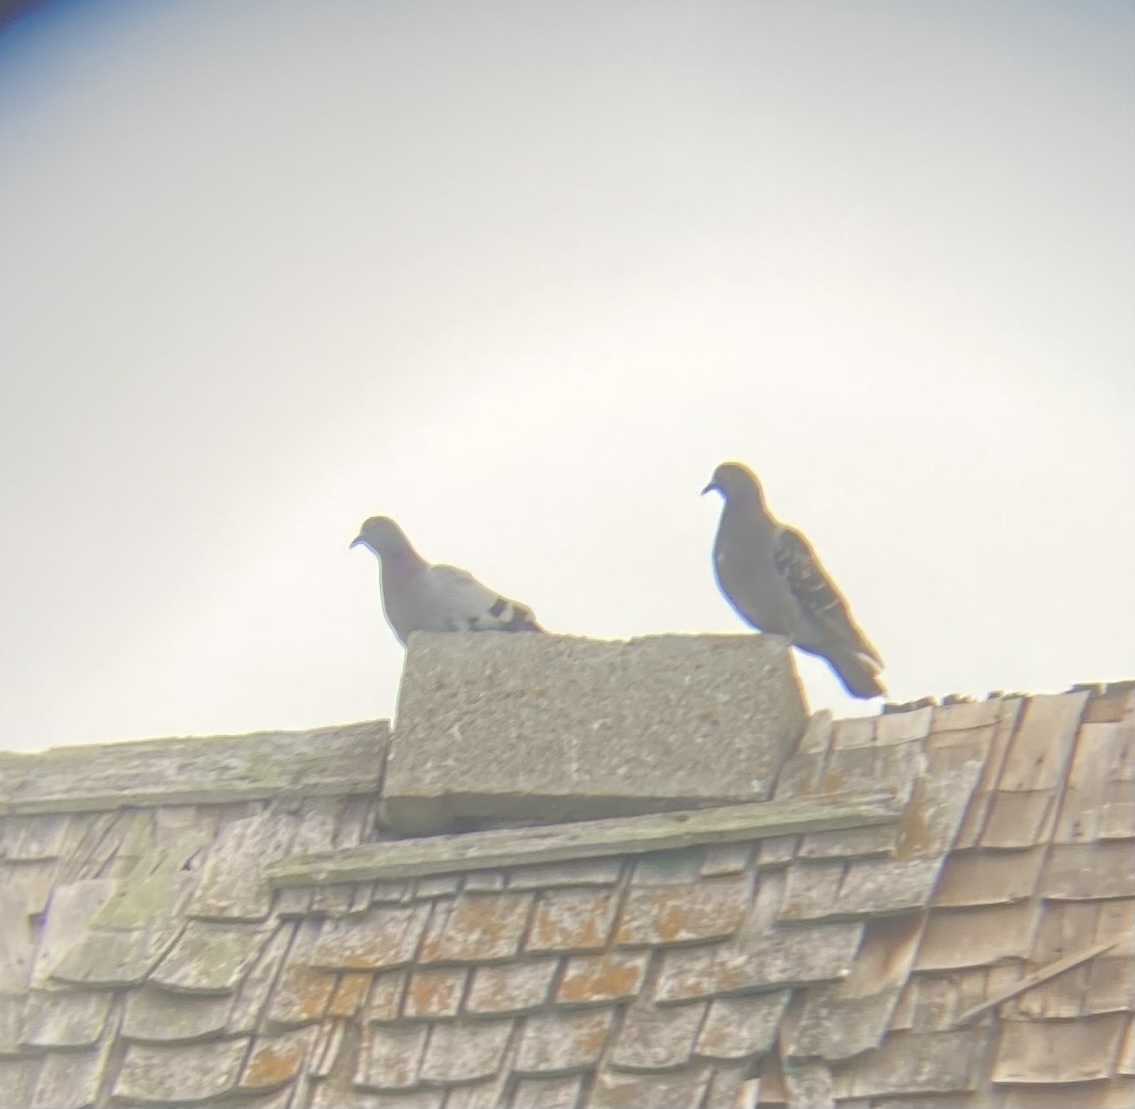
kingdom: Animalia
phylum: Chordata
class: Aves
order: Columbiformes
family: Columbidae
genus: Columba
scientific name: Columba livia
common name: Rock pigeon
